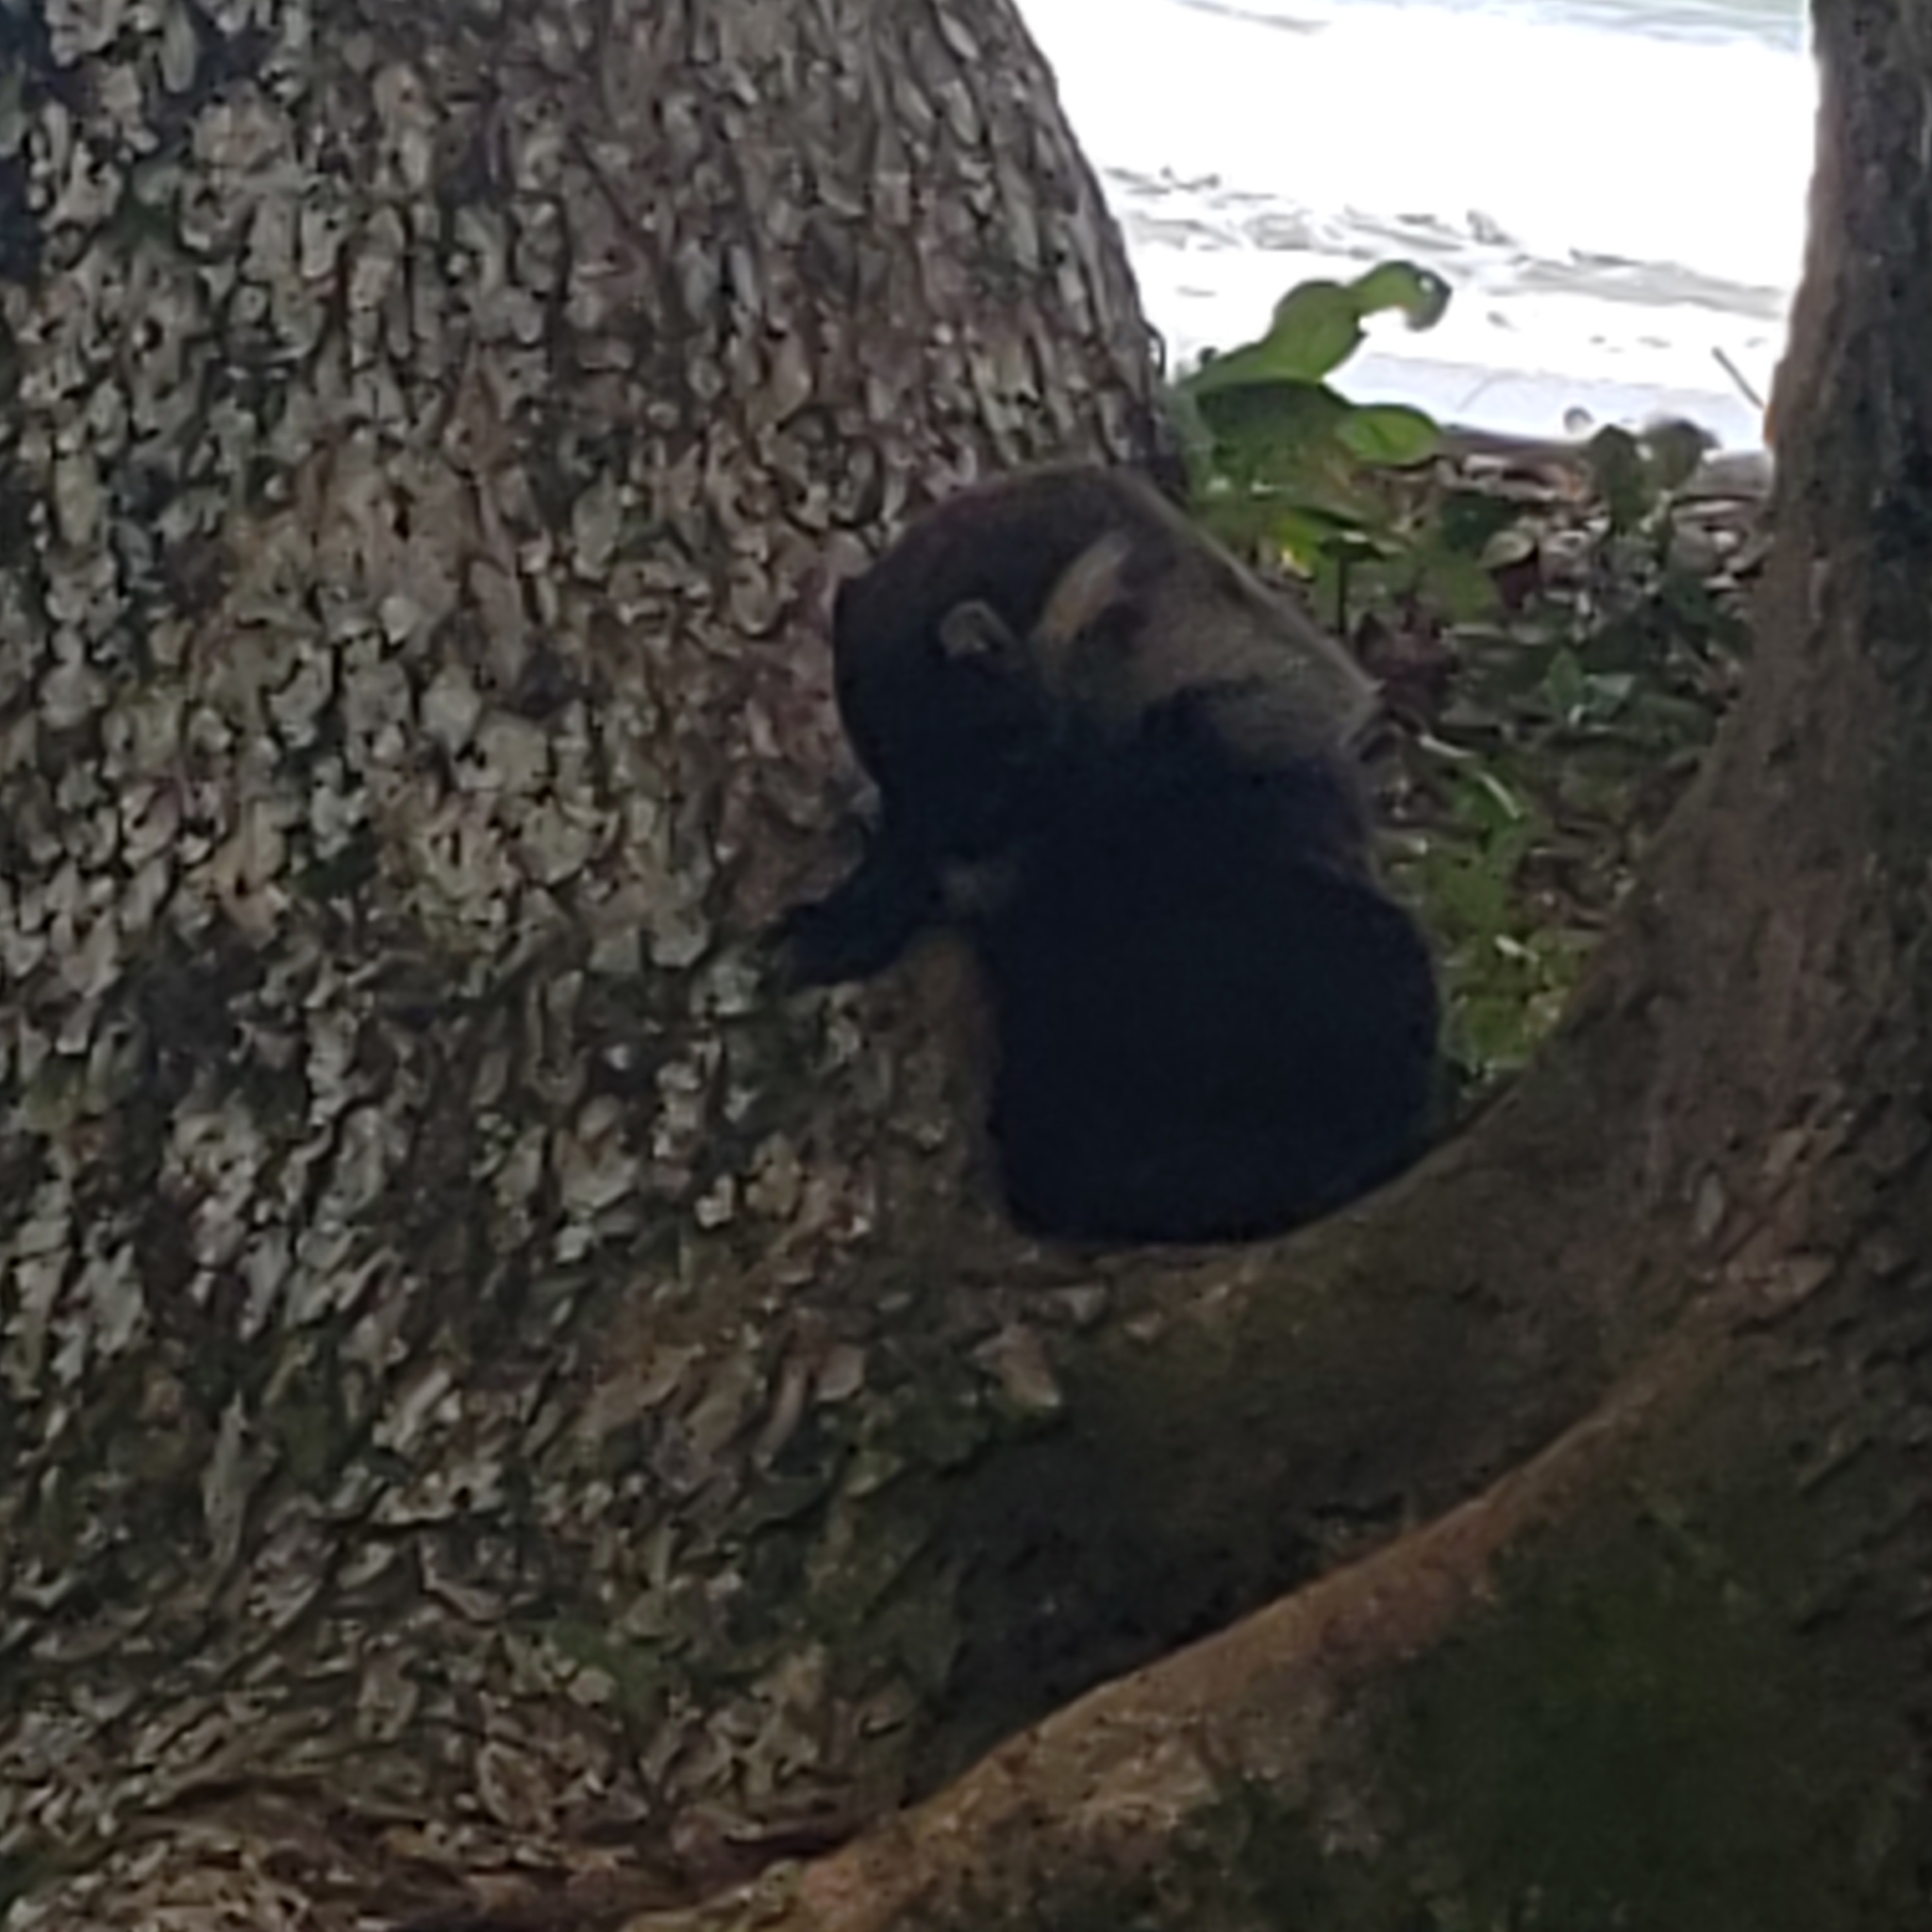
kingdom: Animalia
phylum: Chordata
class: Mammalia
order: Carnivora
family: Procyonidae
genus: Nasua
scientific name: Nasua narica
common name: White-nosed coati
